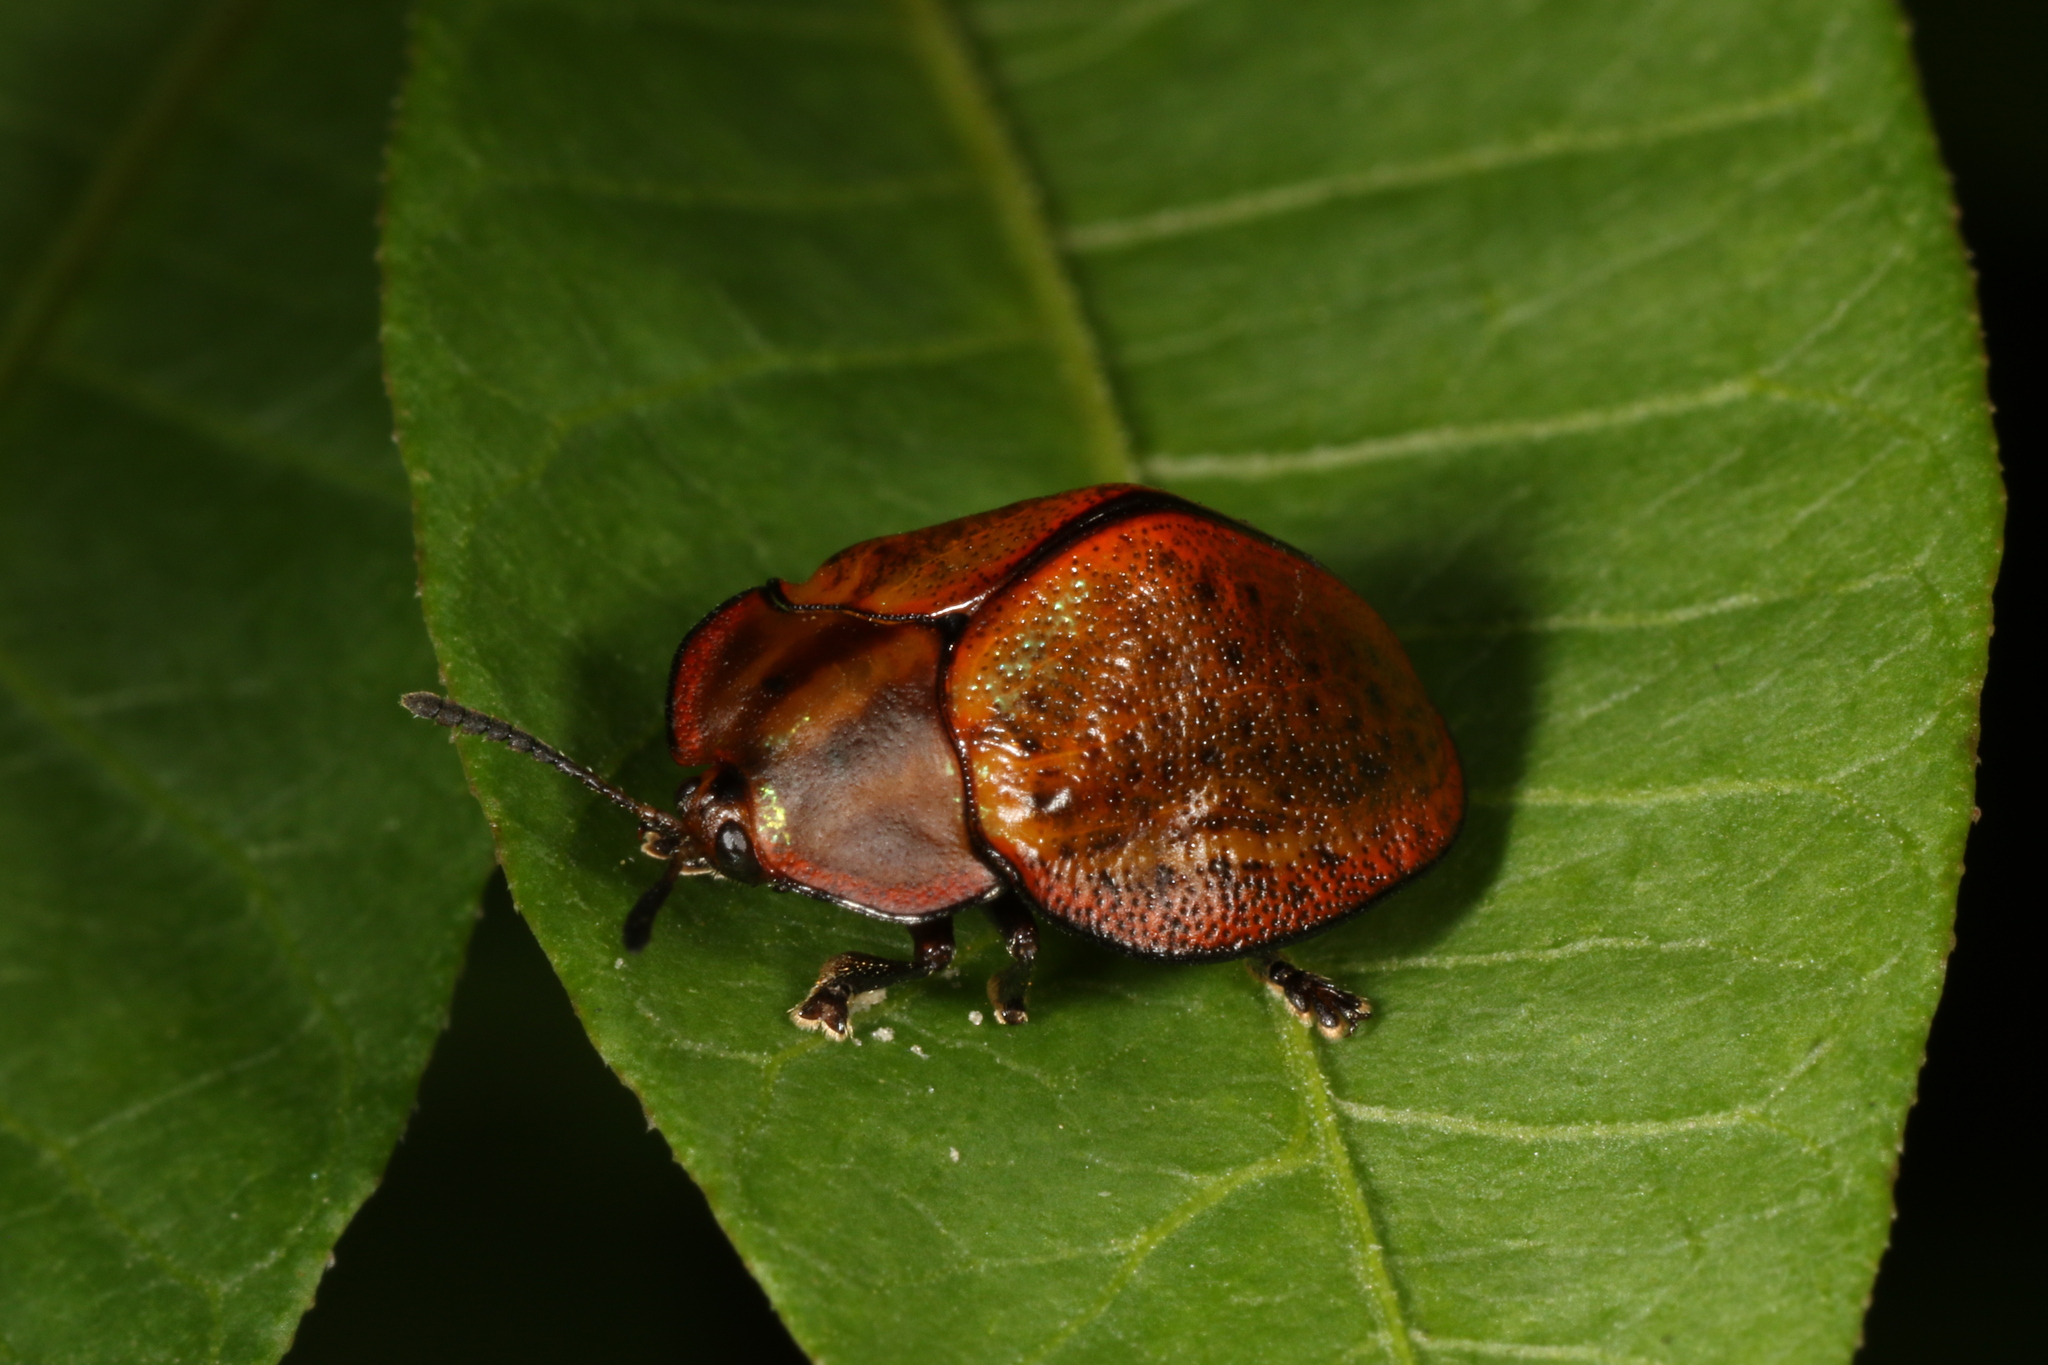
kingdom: Animalia
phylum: Arthropoda
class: Insecta
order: Coleoptera
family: Chrysomelidae
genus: Chelymorpha
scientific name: Chelymorpha inflata
